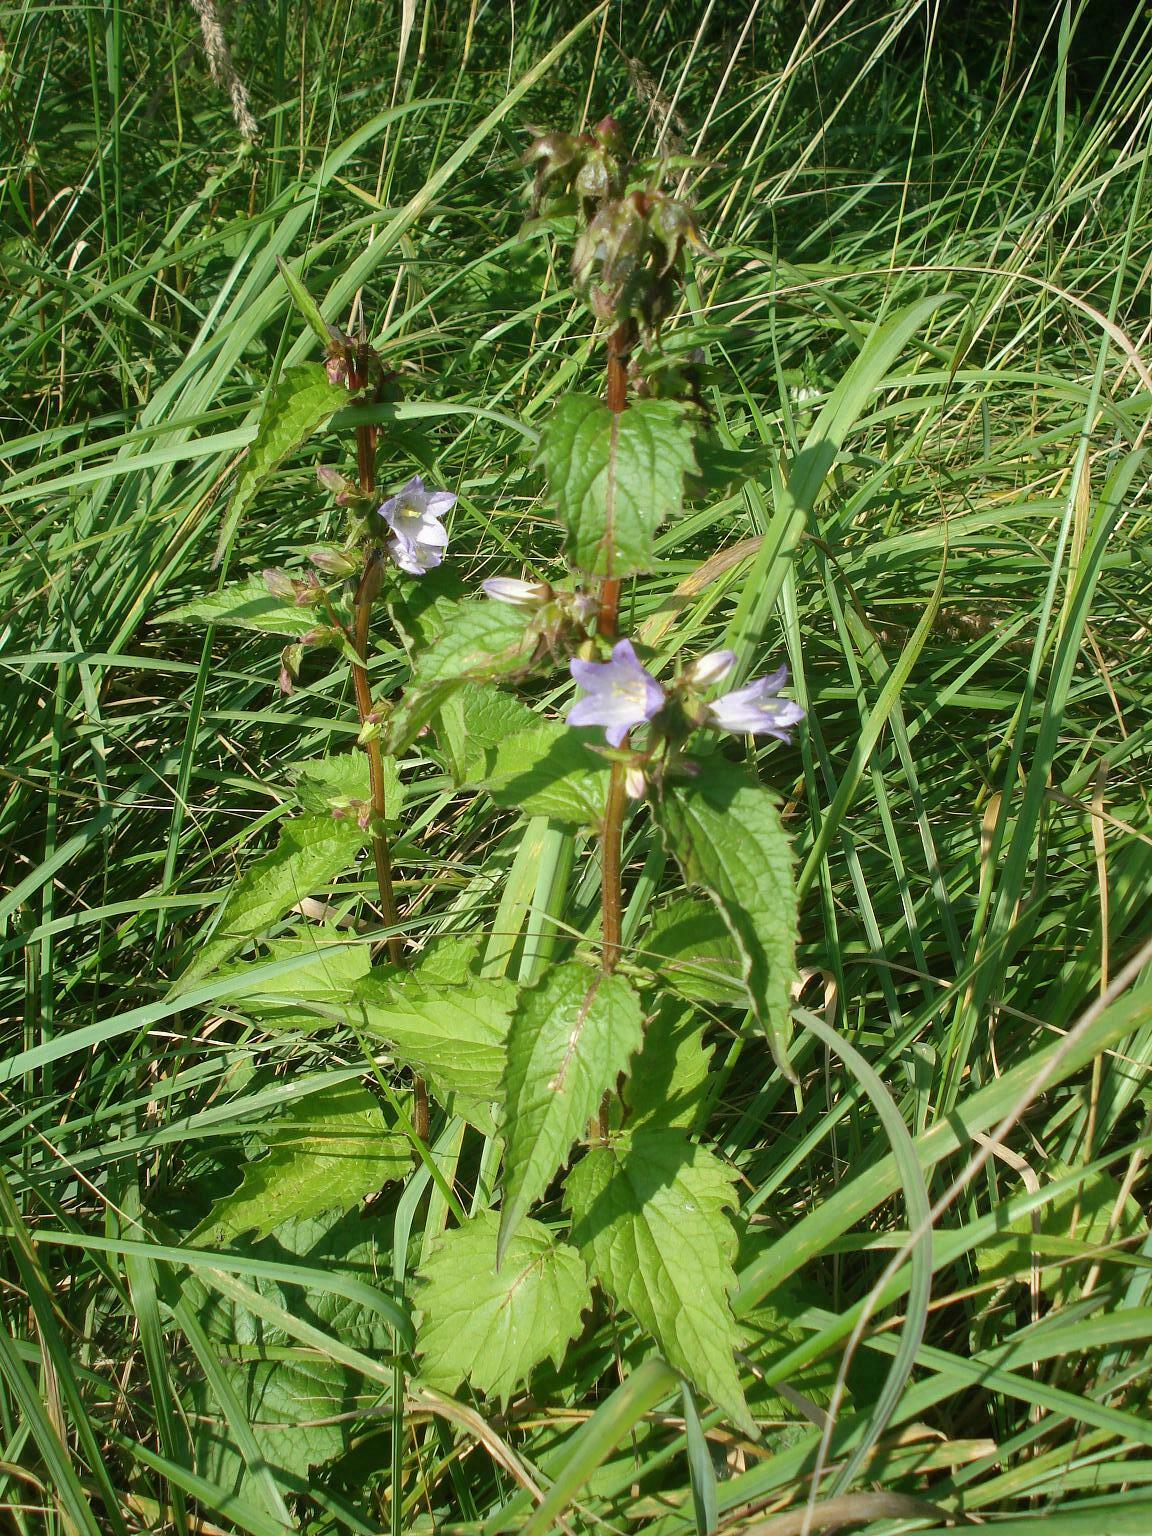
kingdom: Plantae
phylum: Tracheophyta
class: Magnoliopsida
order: Asterales
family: Campanulaceae
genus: Campanula
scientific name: Campanula trachelium
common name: Nettle-leaved bellflower
